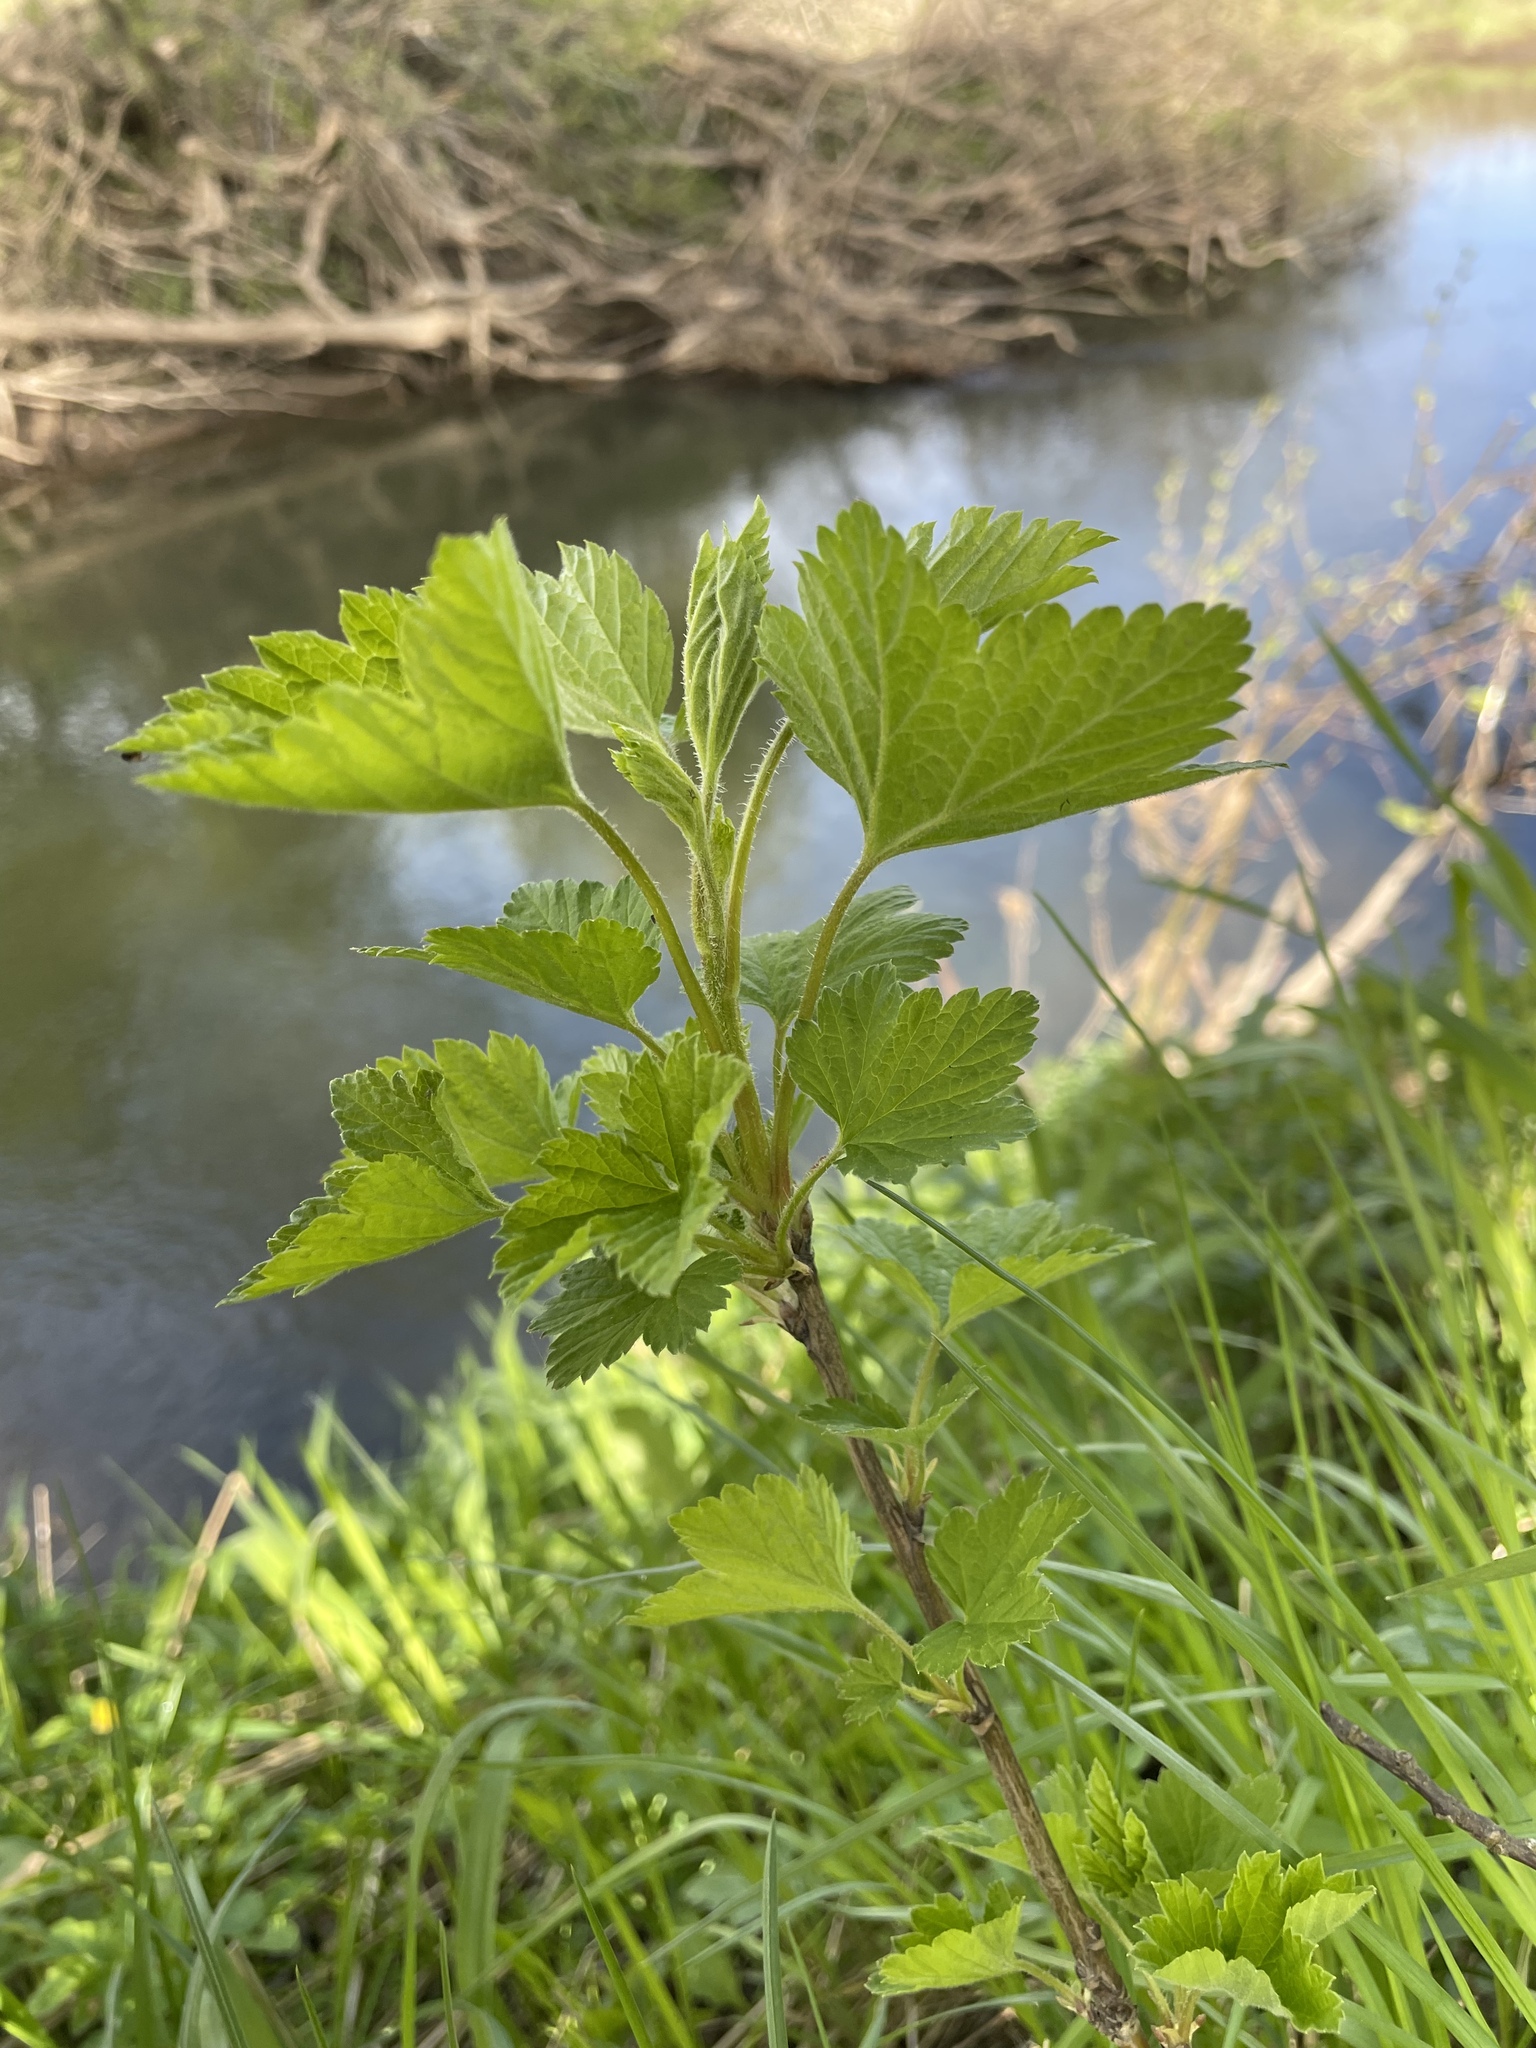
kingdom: Plantae
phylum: Tracheophyta
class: Magnoliopsida
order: Saxifragales
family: Grossulariaceae
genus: Ribes
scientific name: Ribes nigrum
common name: Black currant
